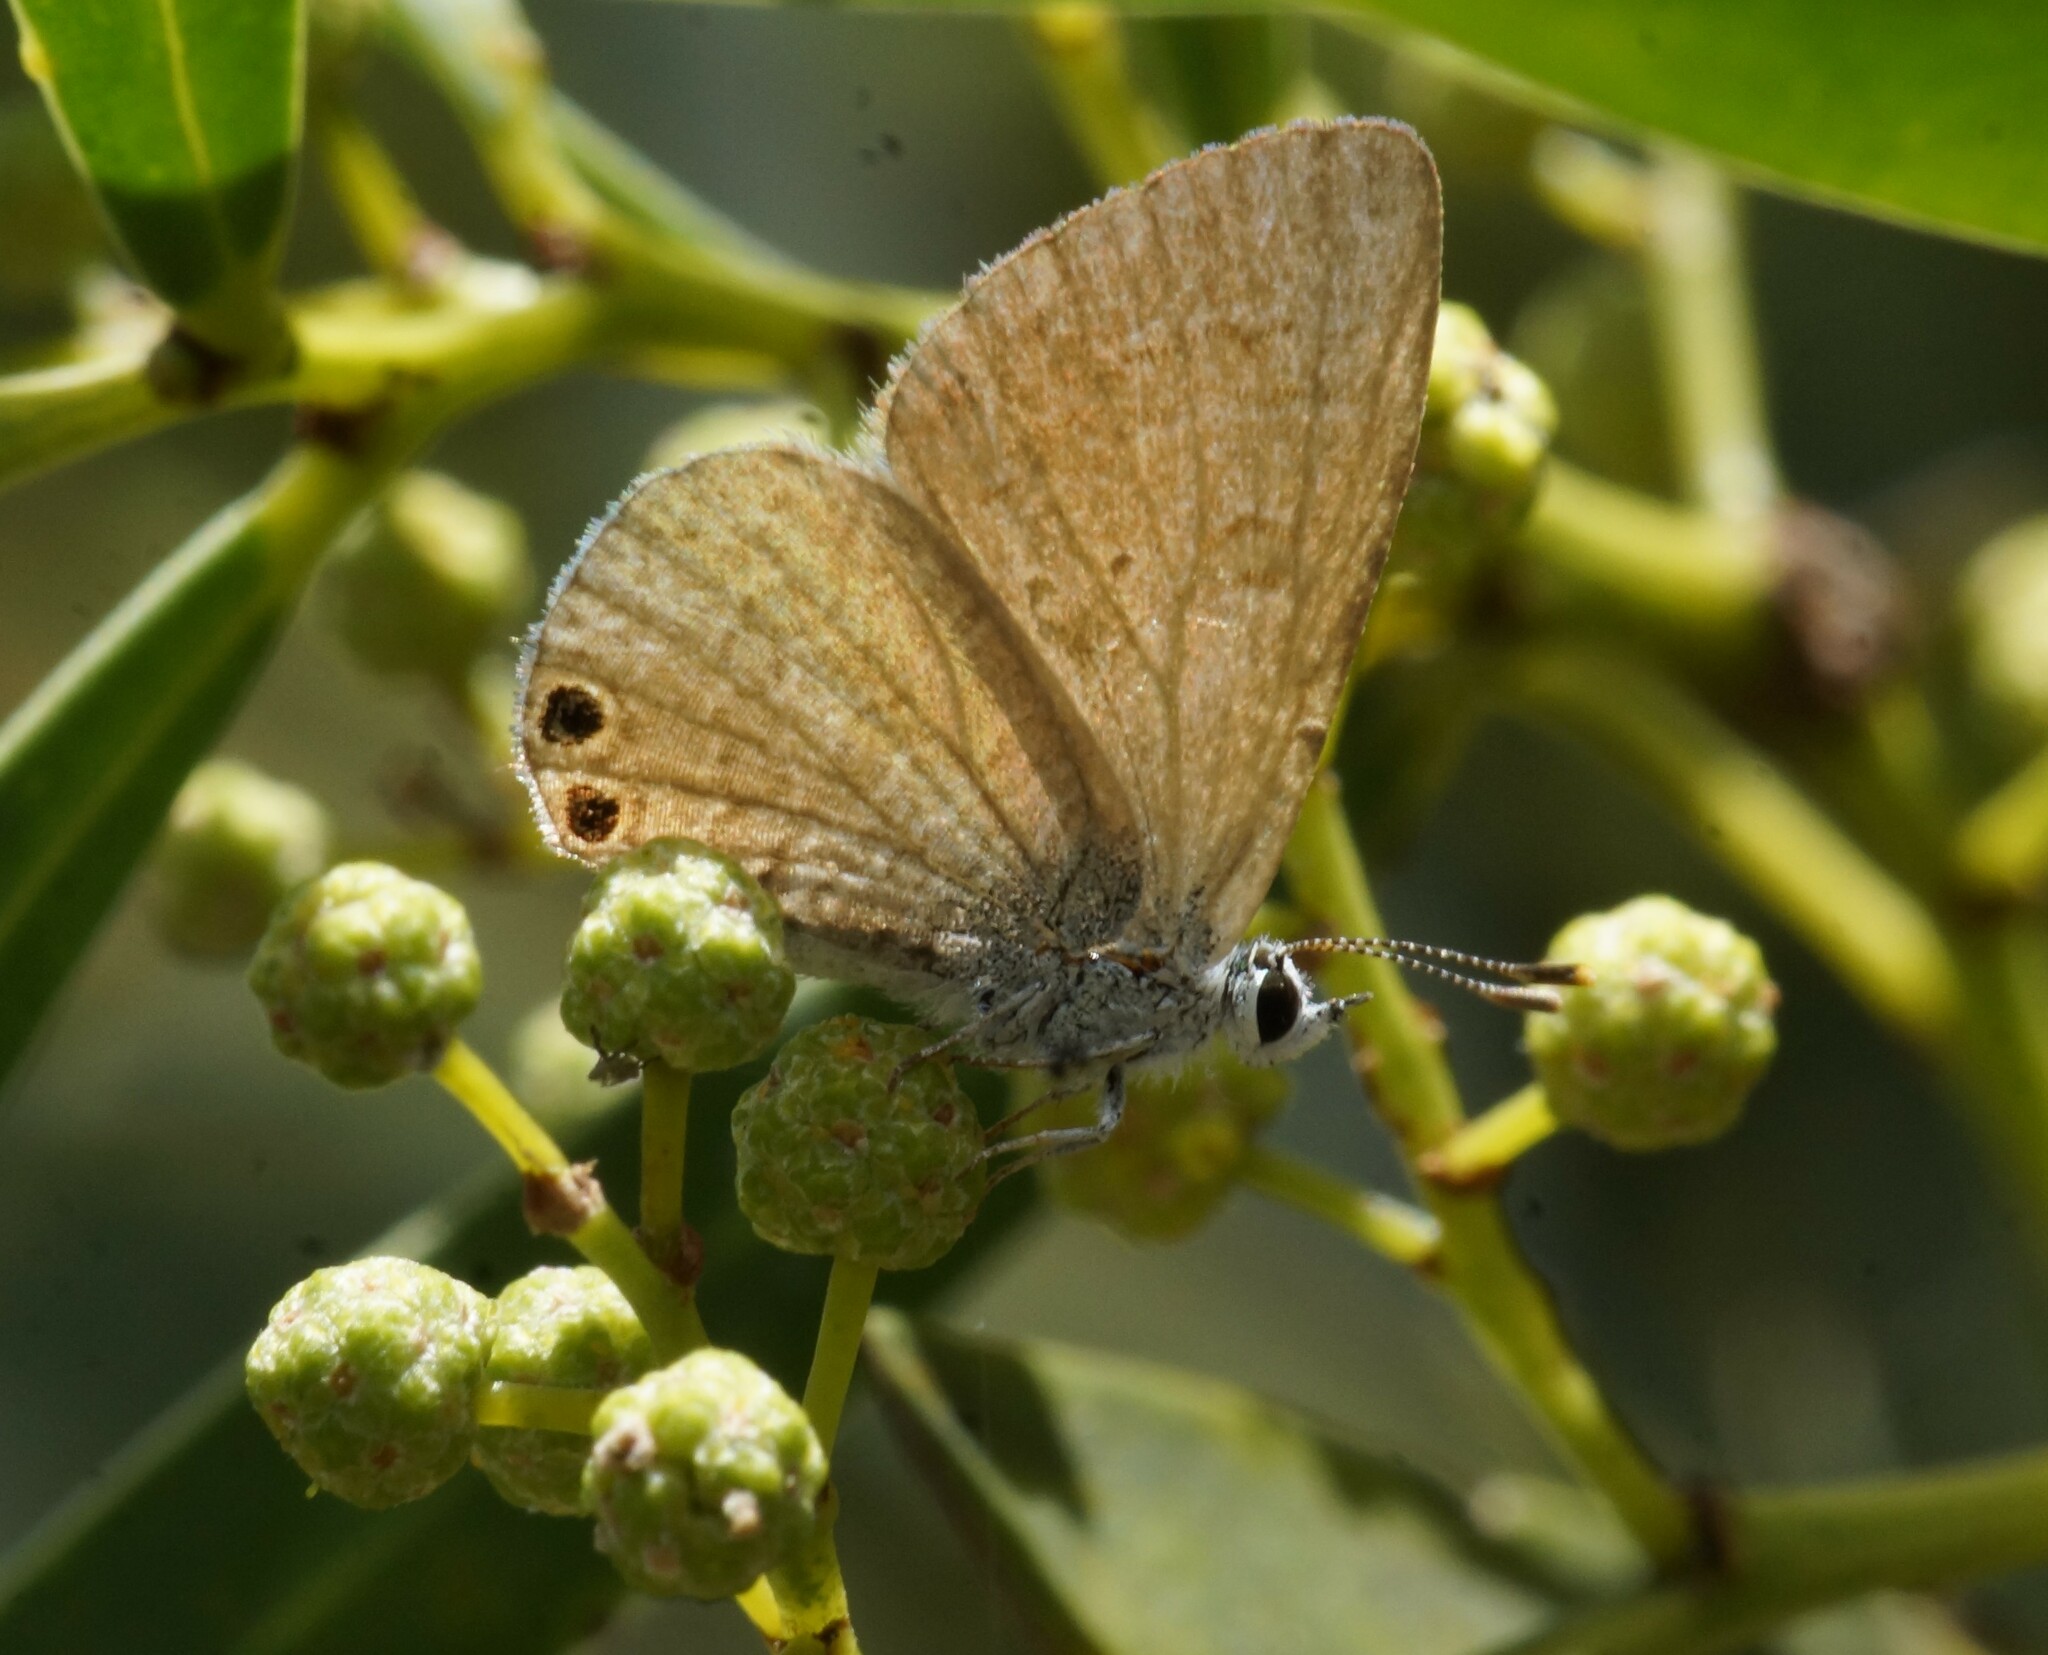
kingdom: Animalia
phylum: Arthropoda
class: Insecta
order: Lepidoptera
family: Lycaenidae
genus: Nacaduba
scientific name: Nacaduba biocellata
